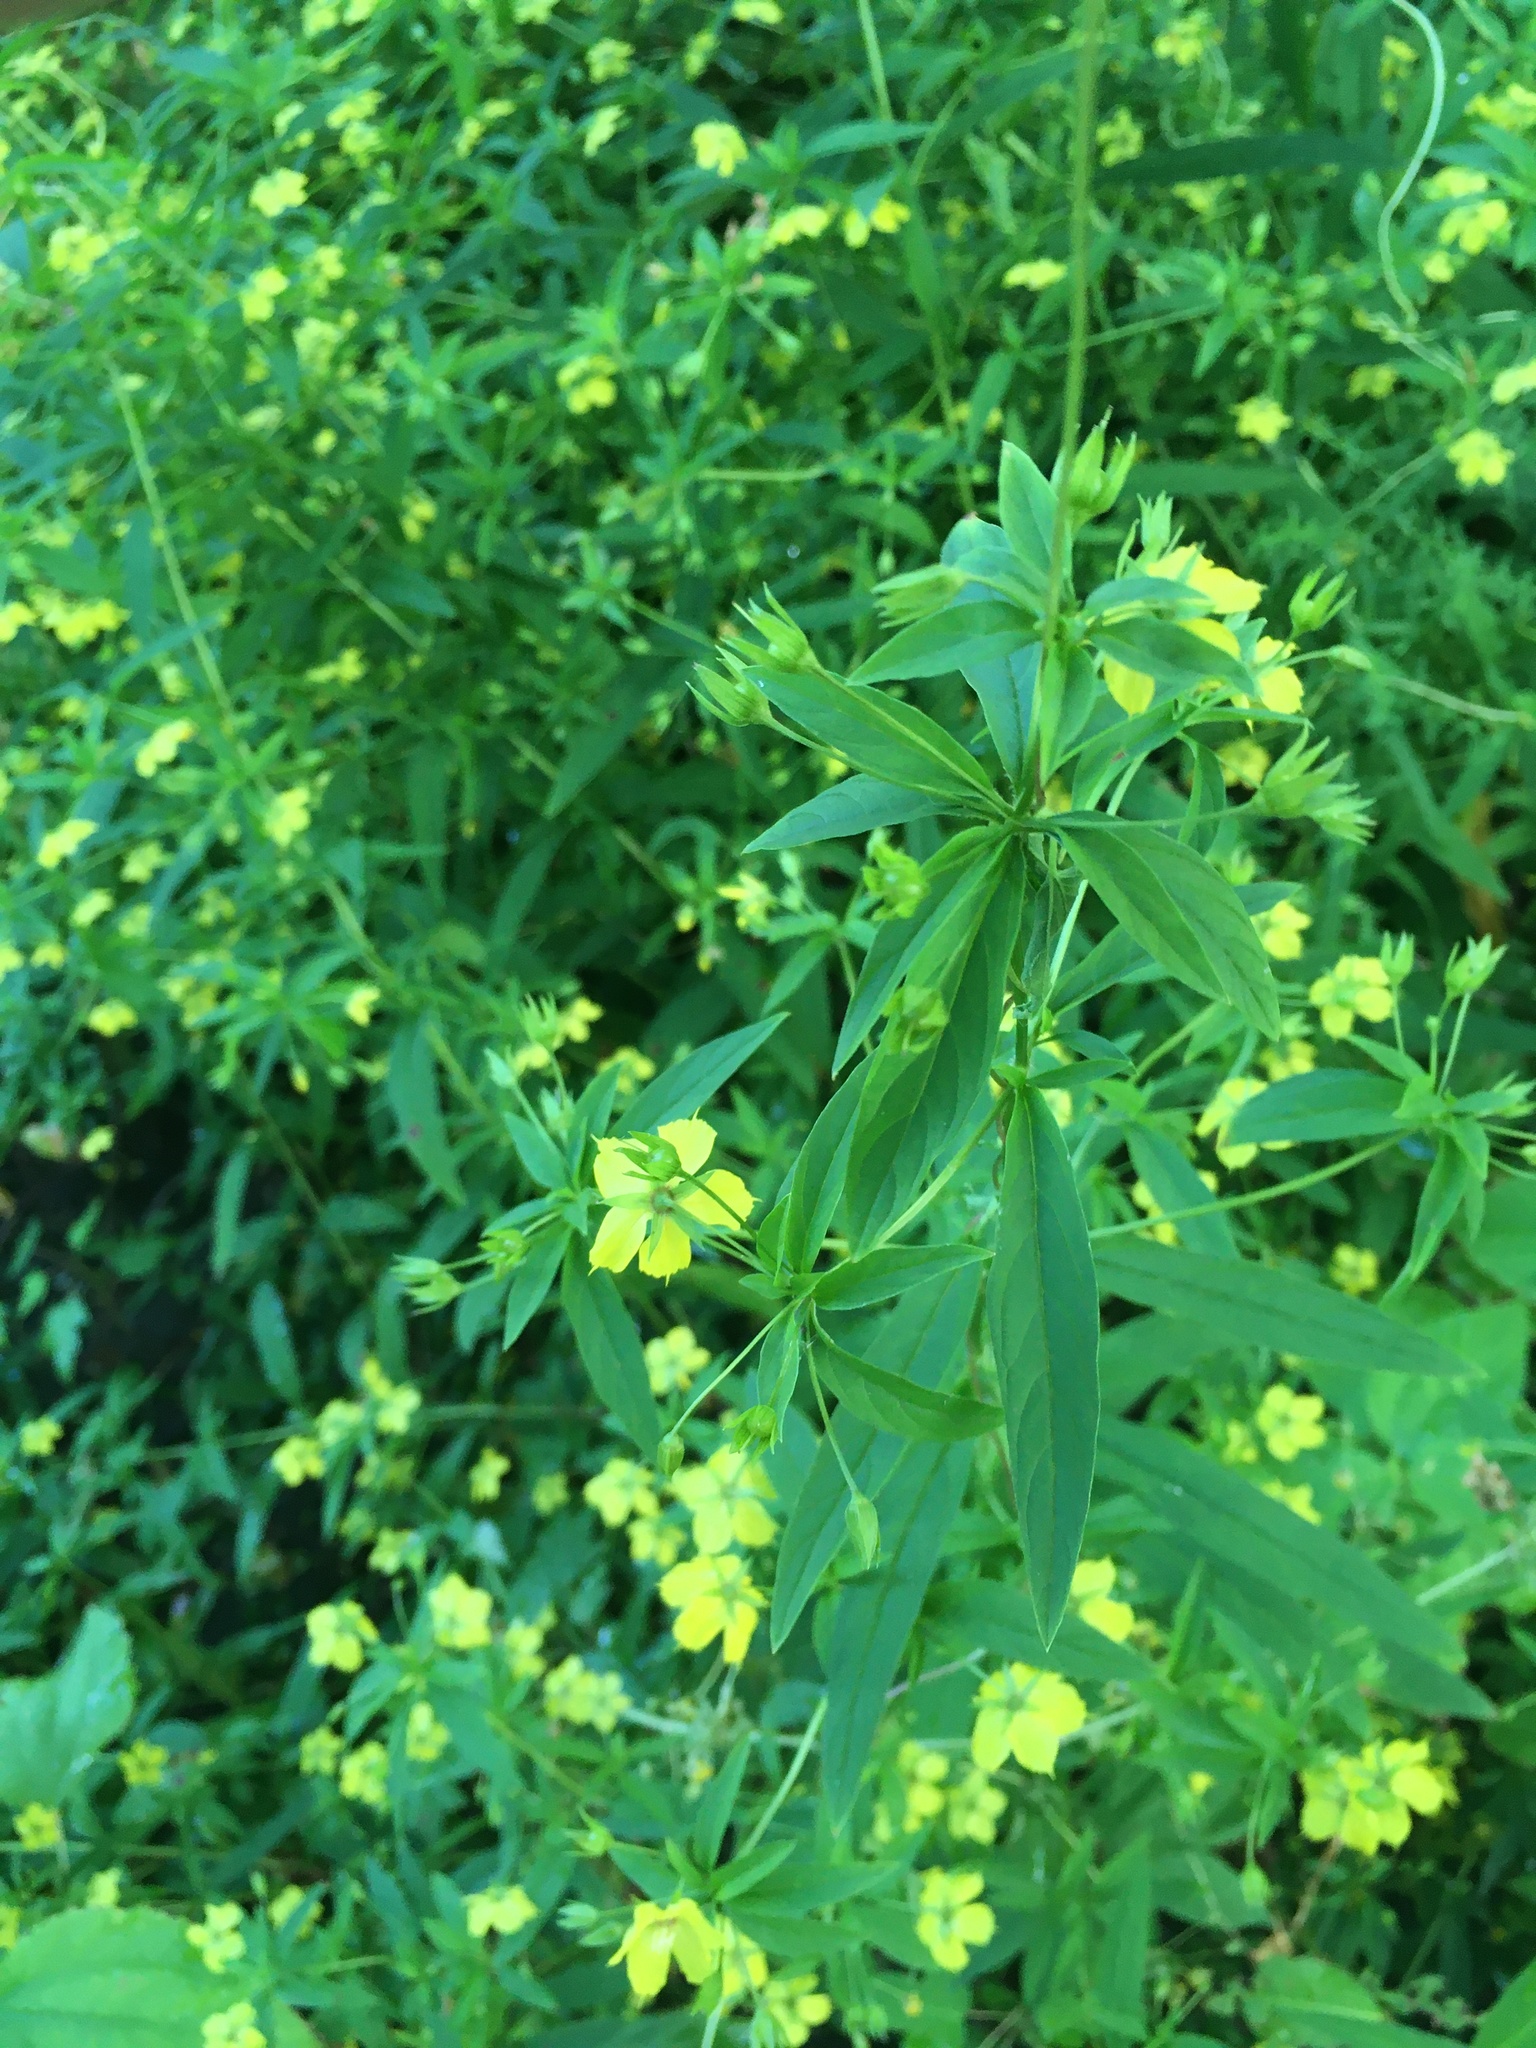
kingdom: Plantae
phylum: Tracheophyta
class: Magnoliopsida
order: Ericales
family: Primulaceae
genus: Lysimachia
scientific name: Lysimachia hybrida
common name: Lowland loosestrife
